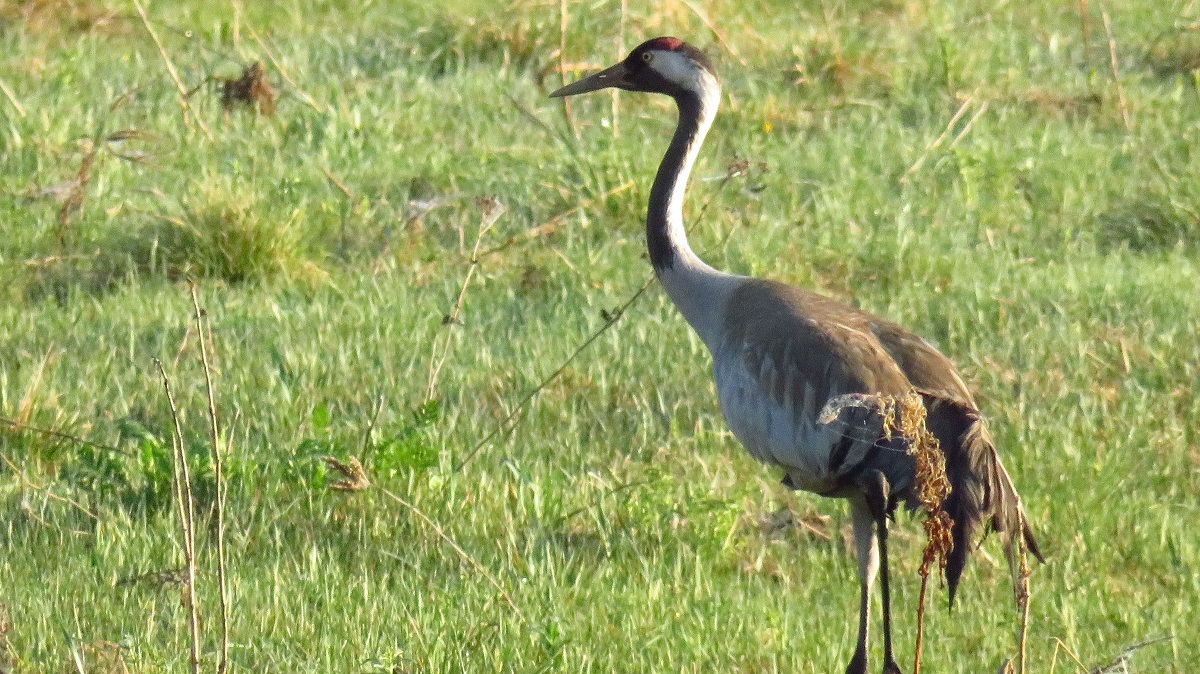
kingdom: Animalia
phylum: Chordata
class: Aves
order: Gruiformes
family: Gruidae
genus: Grus
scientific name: Grus grus
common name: Common crane
